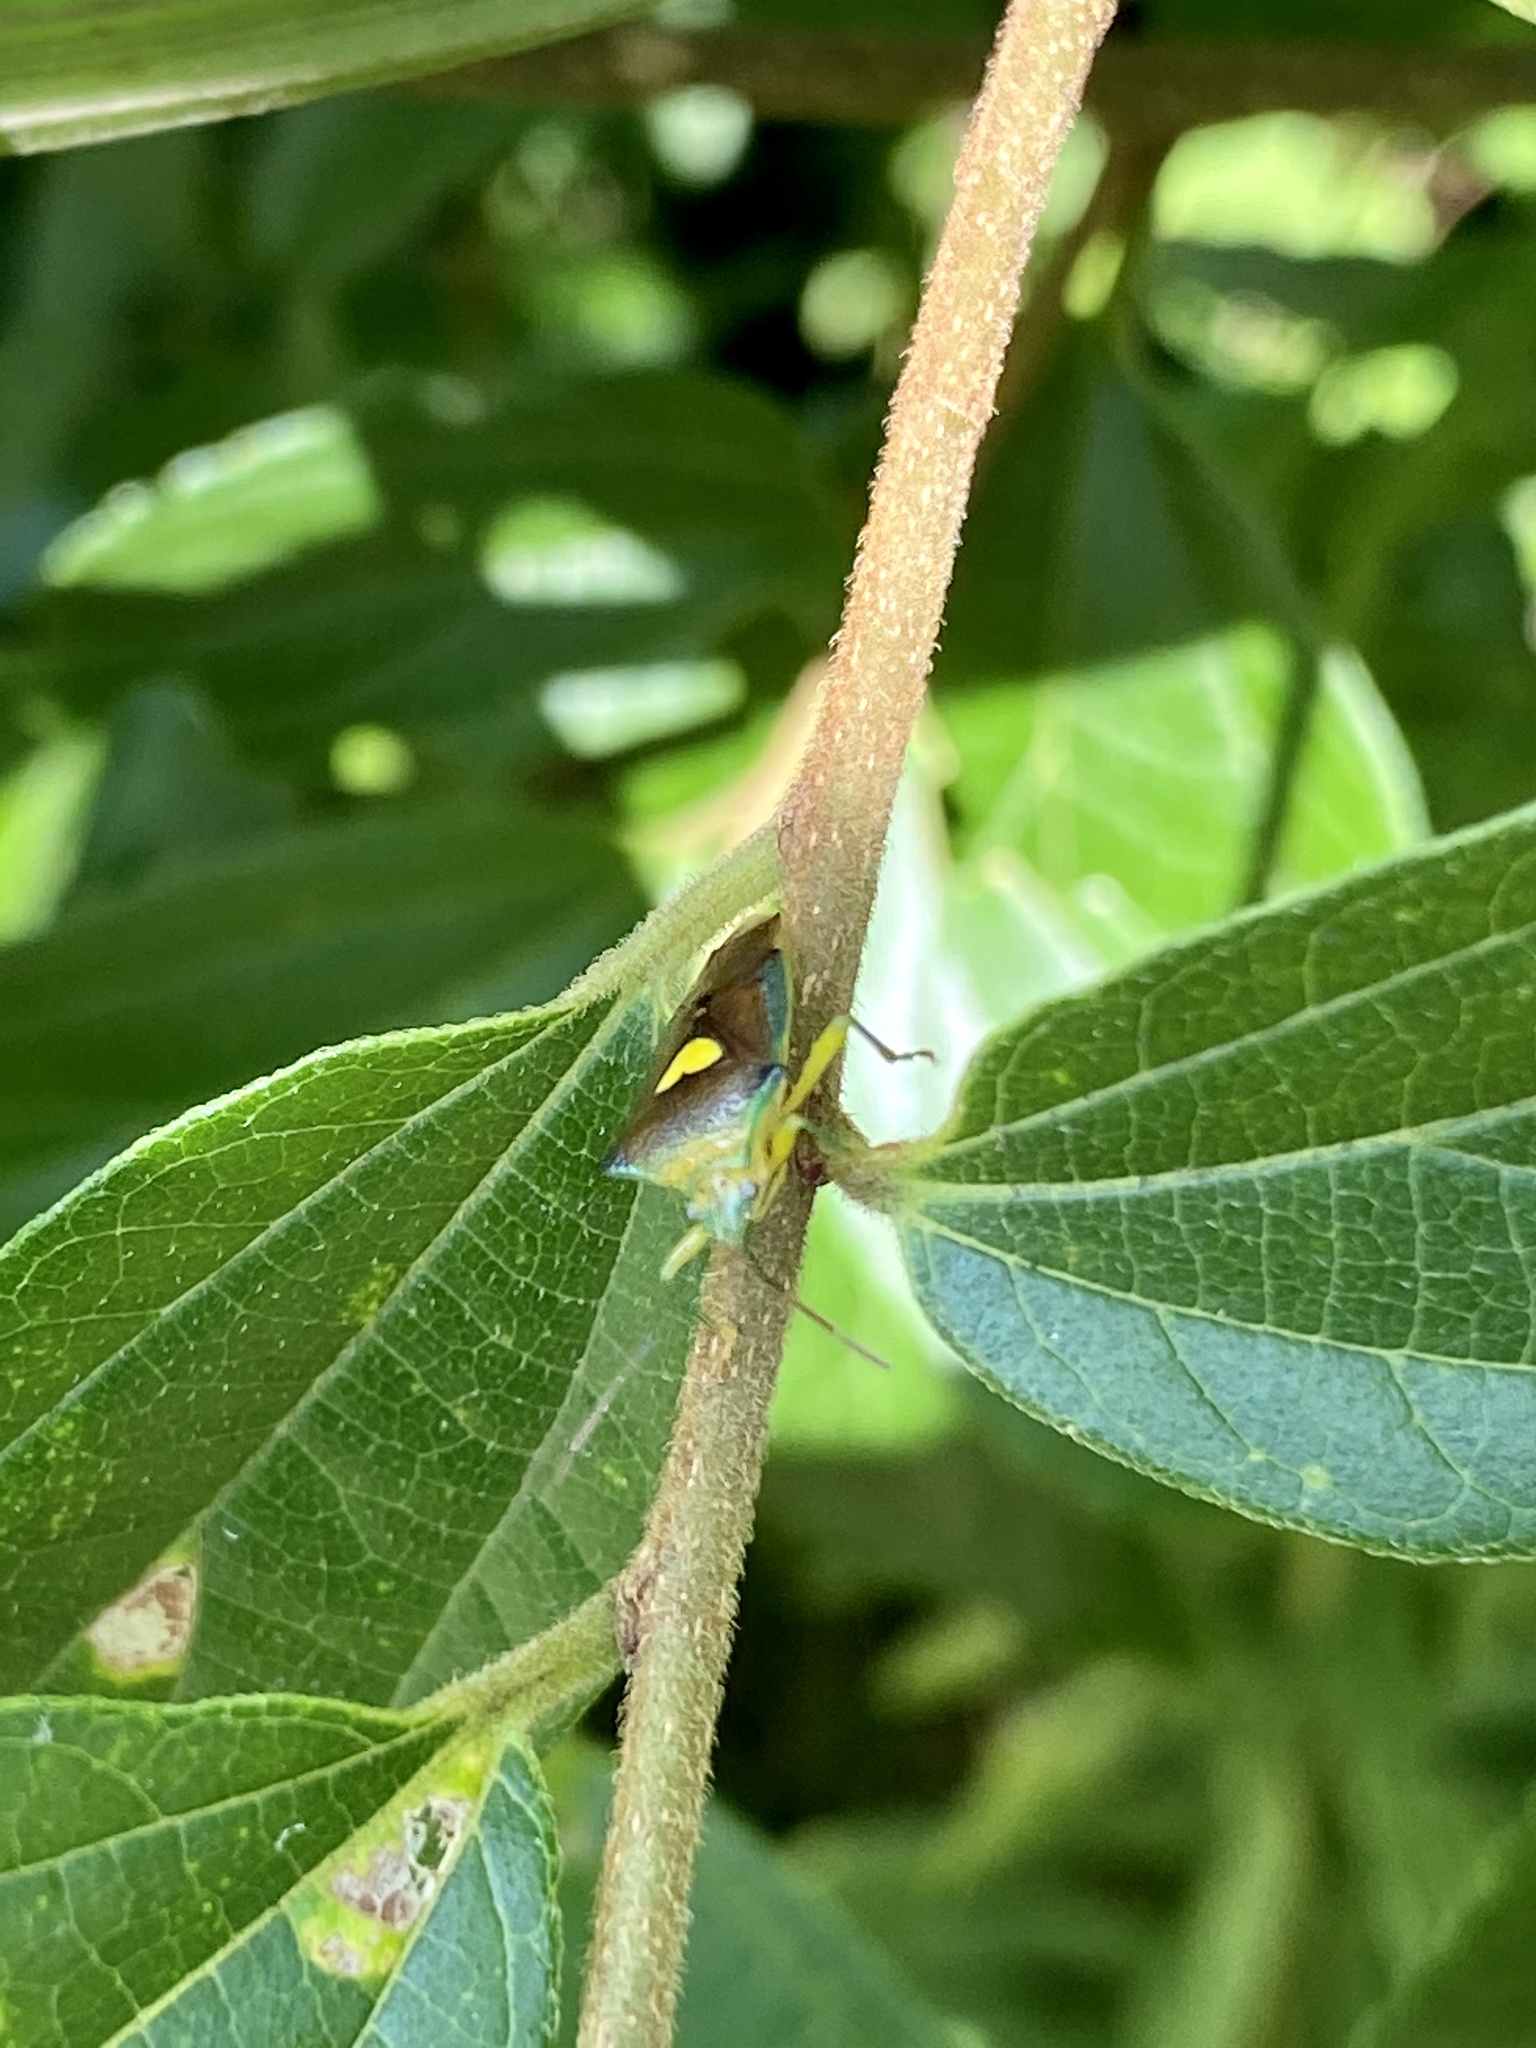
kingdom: Animalia
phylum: Arthropoda
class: Insecta
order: Hemiptera
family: Acanthosomatidae
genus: Sastragala
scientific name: Sastragala esakii
